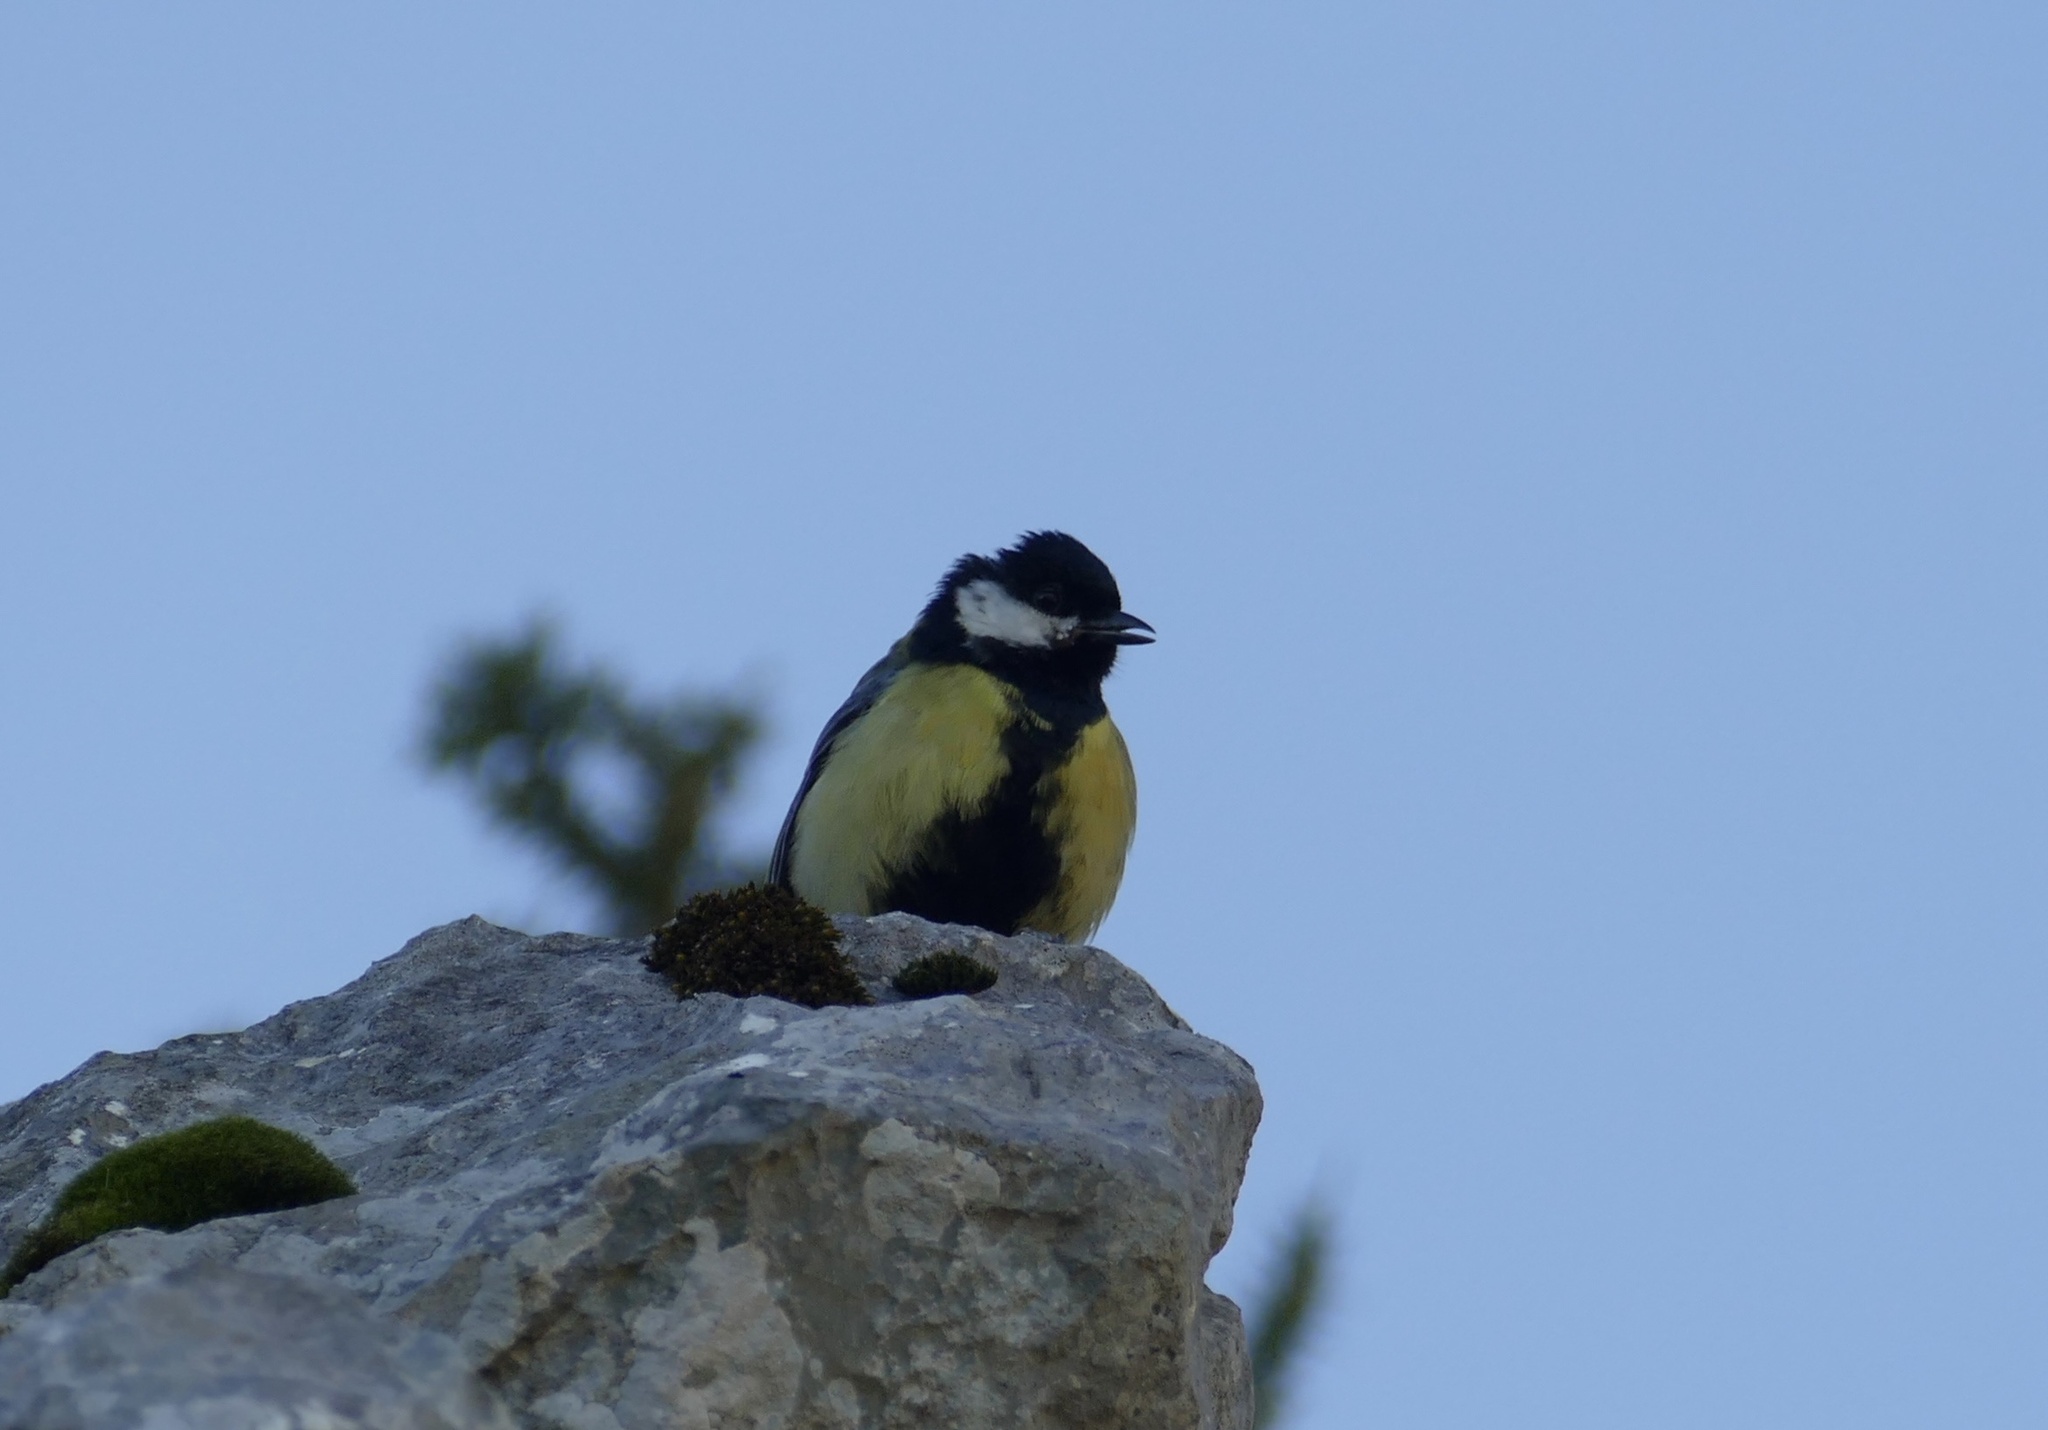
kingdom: Animalia
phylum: Chordata
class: Aves
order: Passeriformes
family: Paridae
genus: Parus
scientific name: Parus major
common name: Great tit
